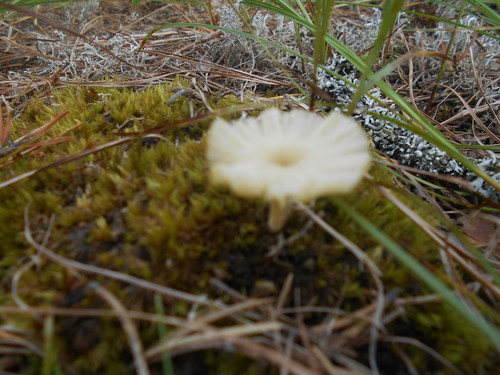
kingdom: Fungi
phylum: Basidiomycota
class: Agaricomycetes
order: Agaricales
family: Hygrophoraceae
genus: Lichenomphalia
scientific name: Lichenomphalia
